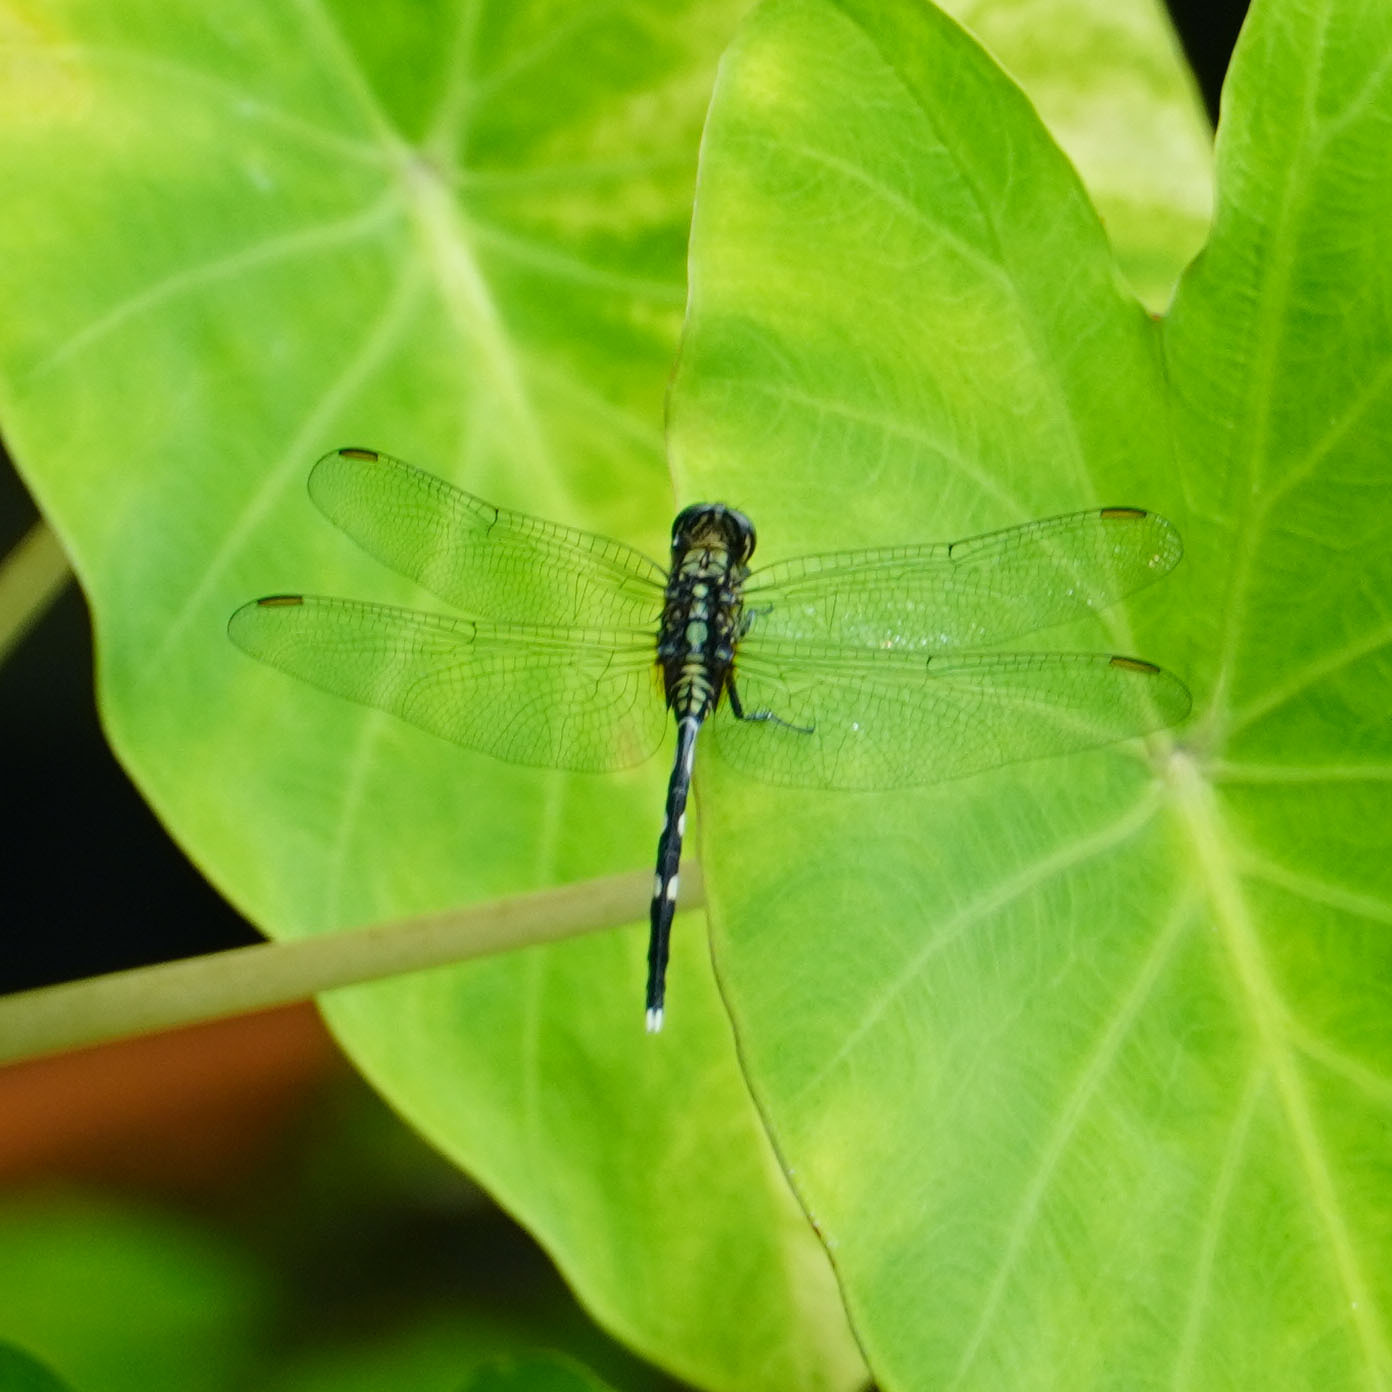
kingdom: Animalia
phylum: Arthropoda
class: Insecta
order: Odonata
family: Libellulidae
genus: Orthetrum
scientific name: Orthetrum sabina
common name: Slender skimmer
